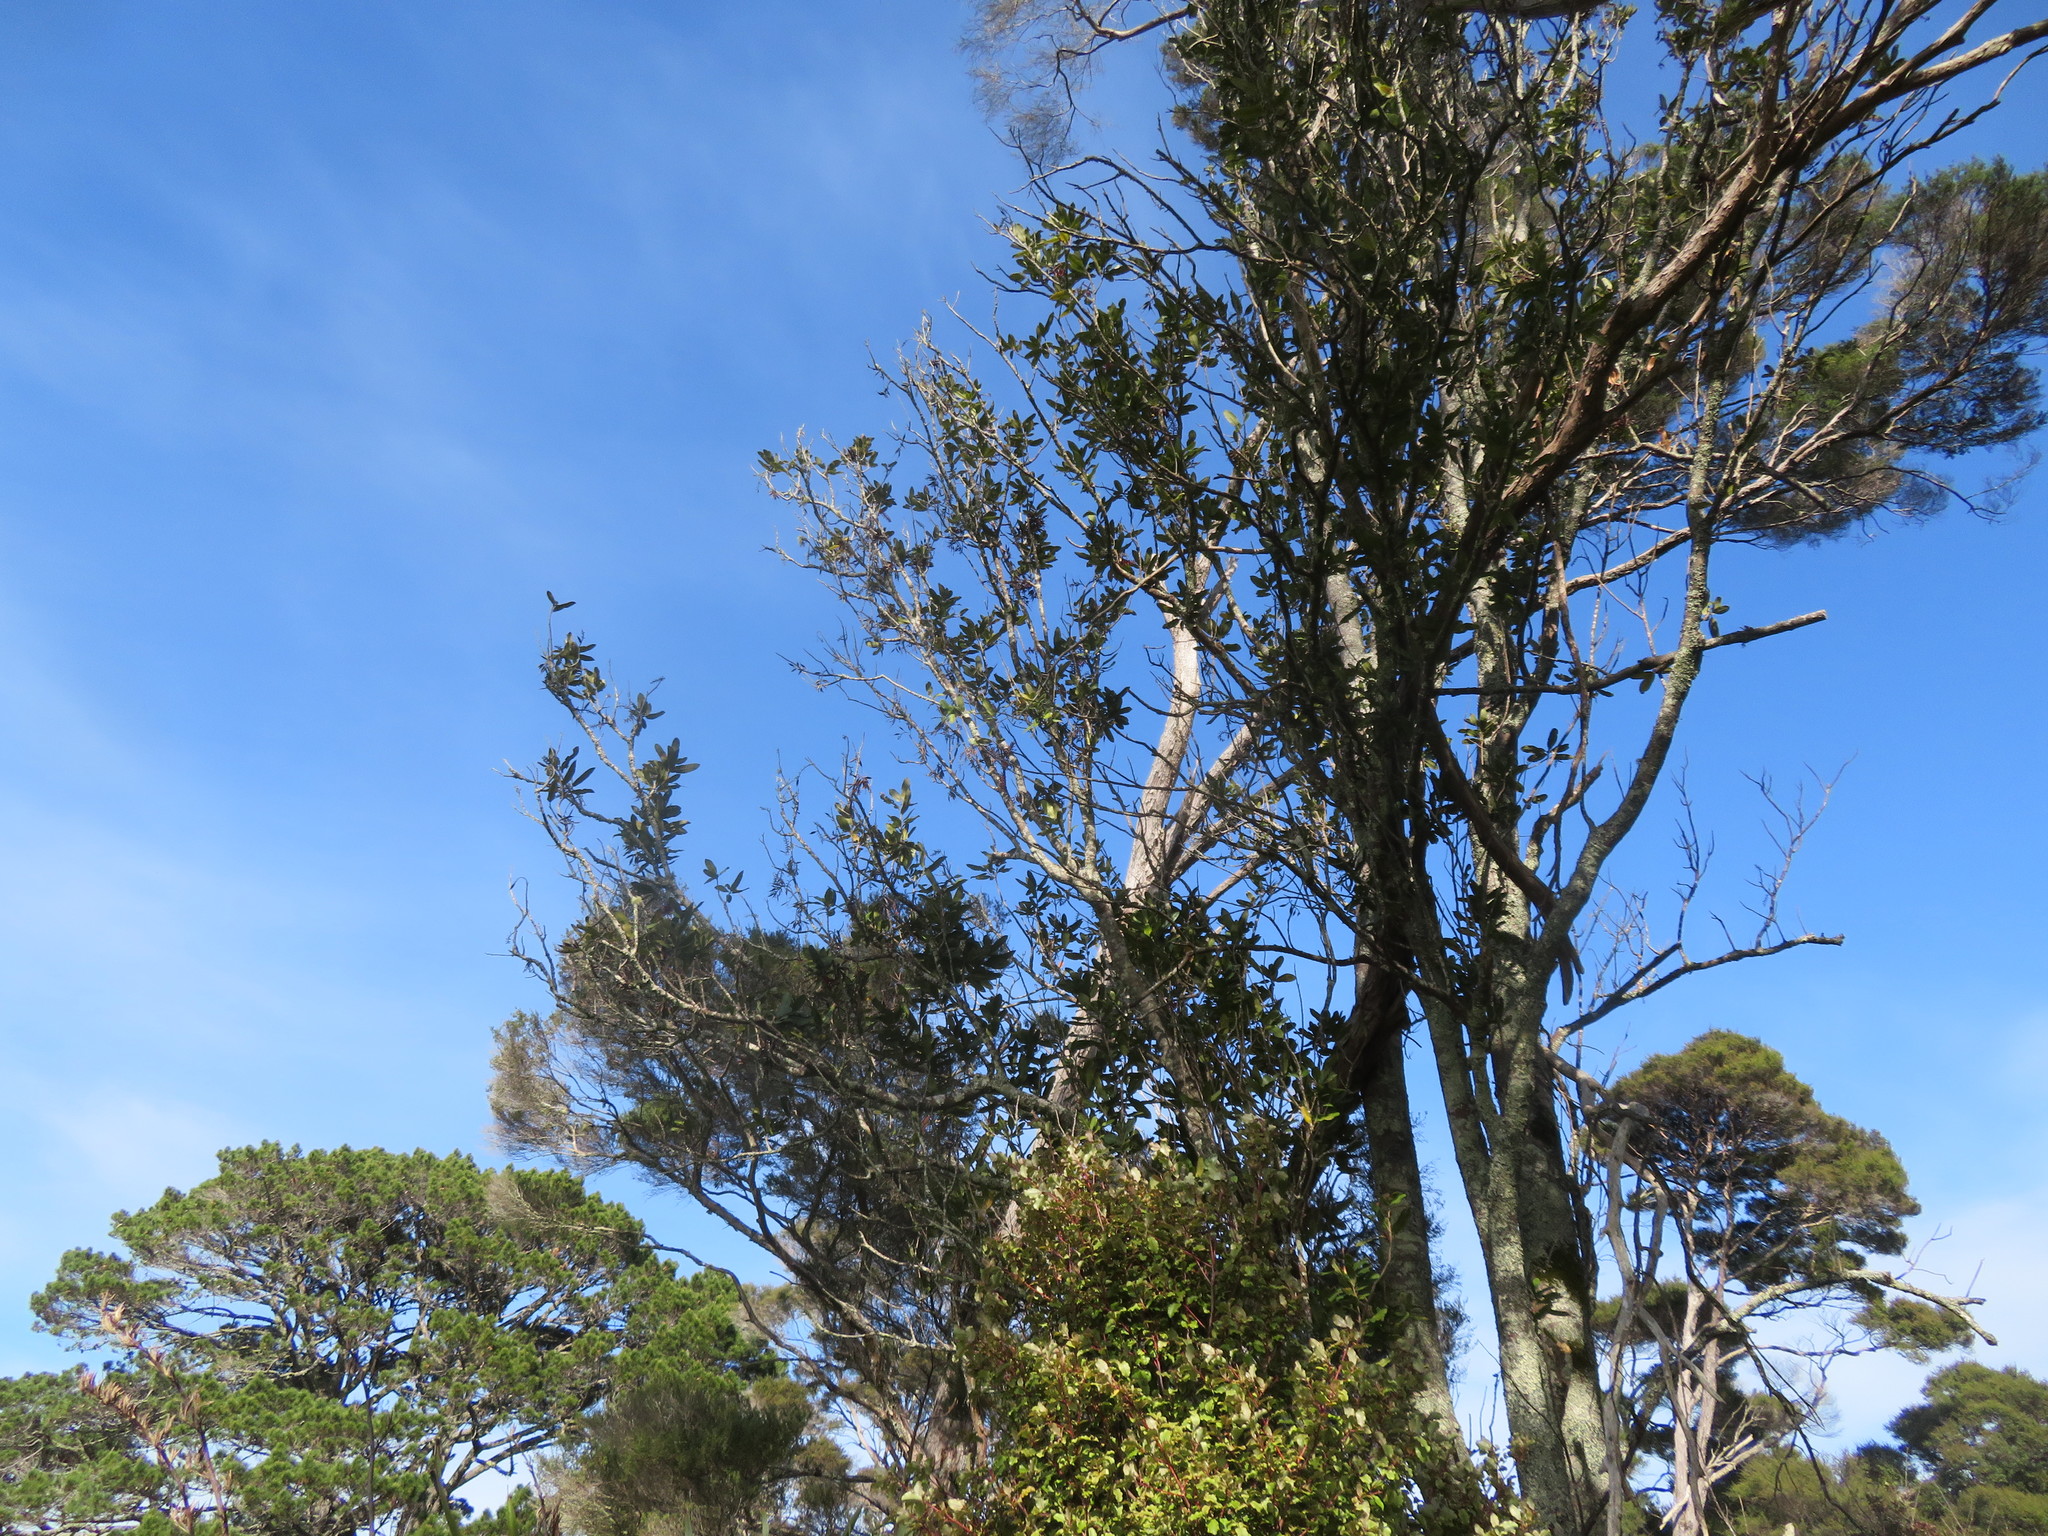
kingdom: Plantae
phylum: Tracheophyta
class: Magnoliopsida
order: Proteales
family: Proteaceae
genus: Knightia
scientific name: Knightia excelsa
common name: New zealand-honeysuckle
